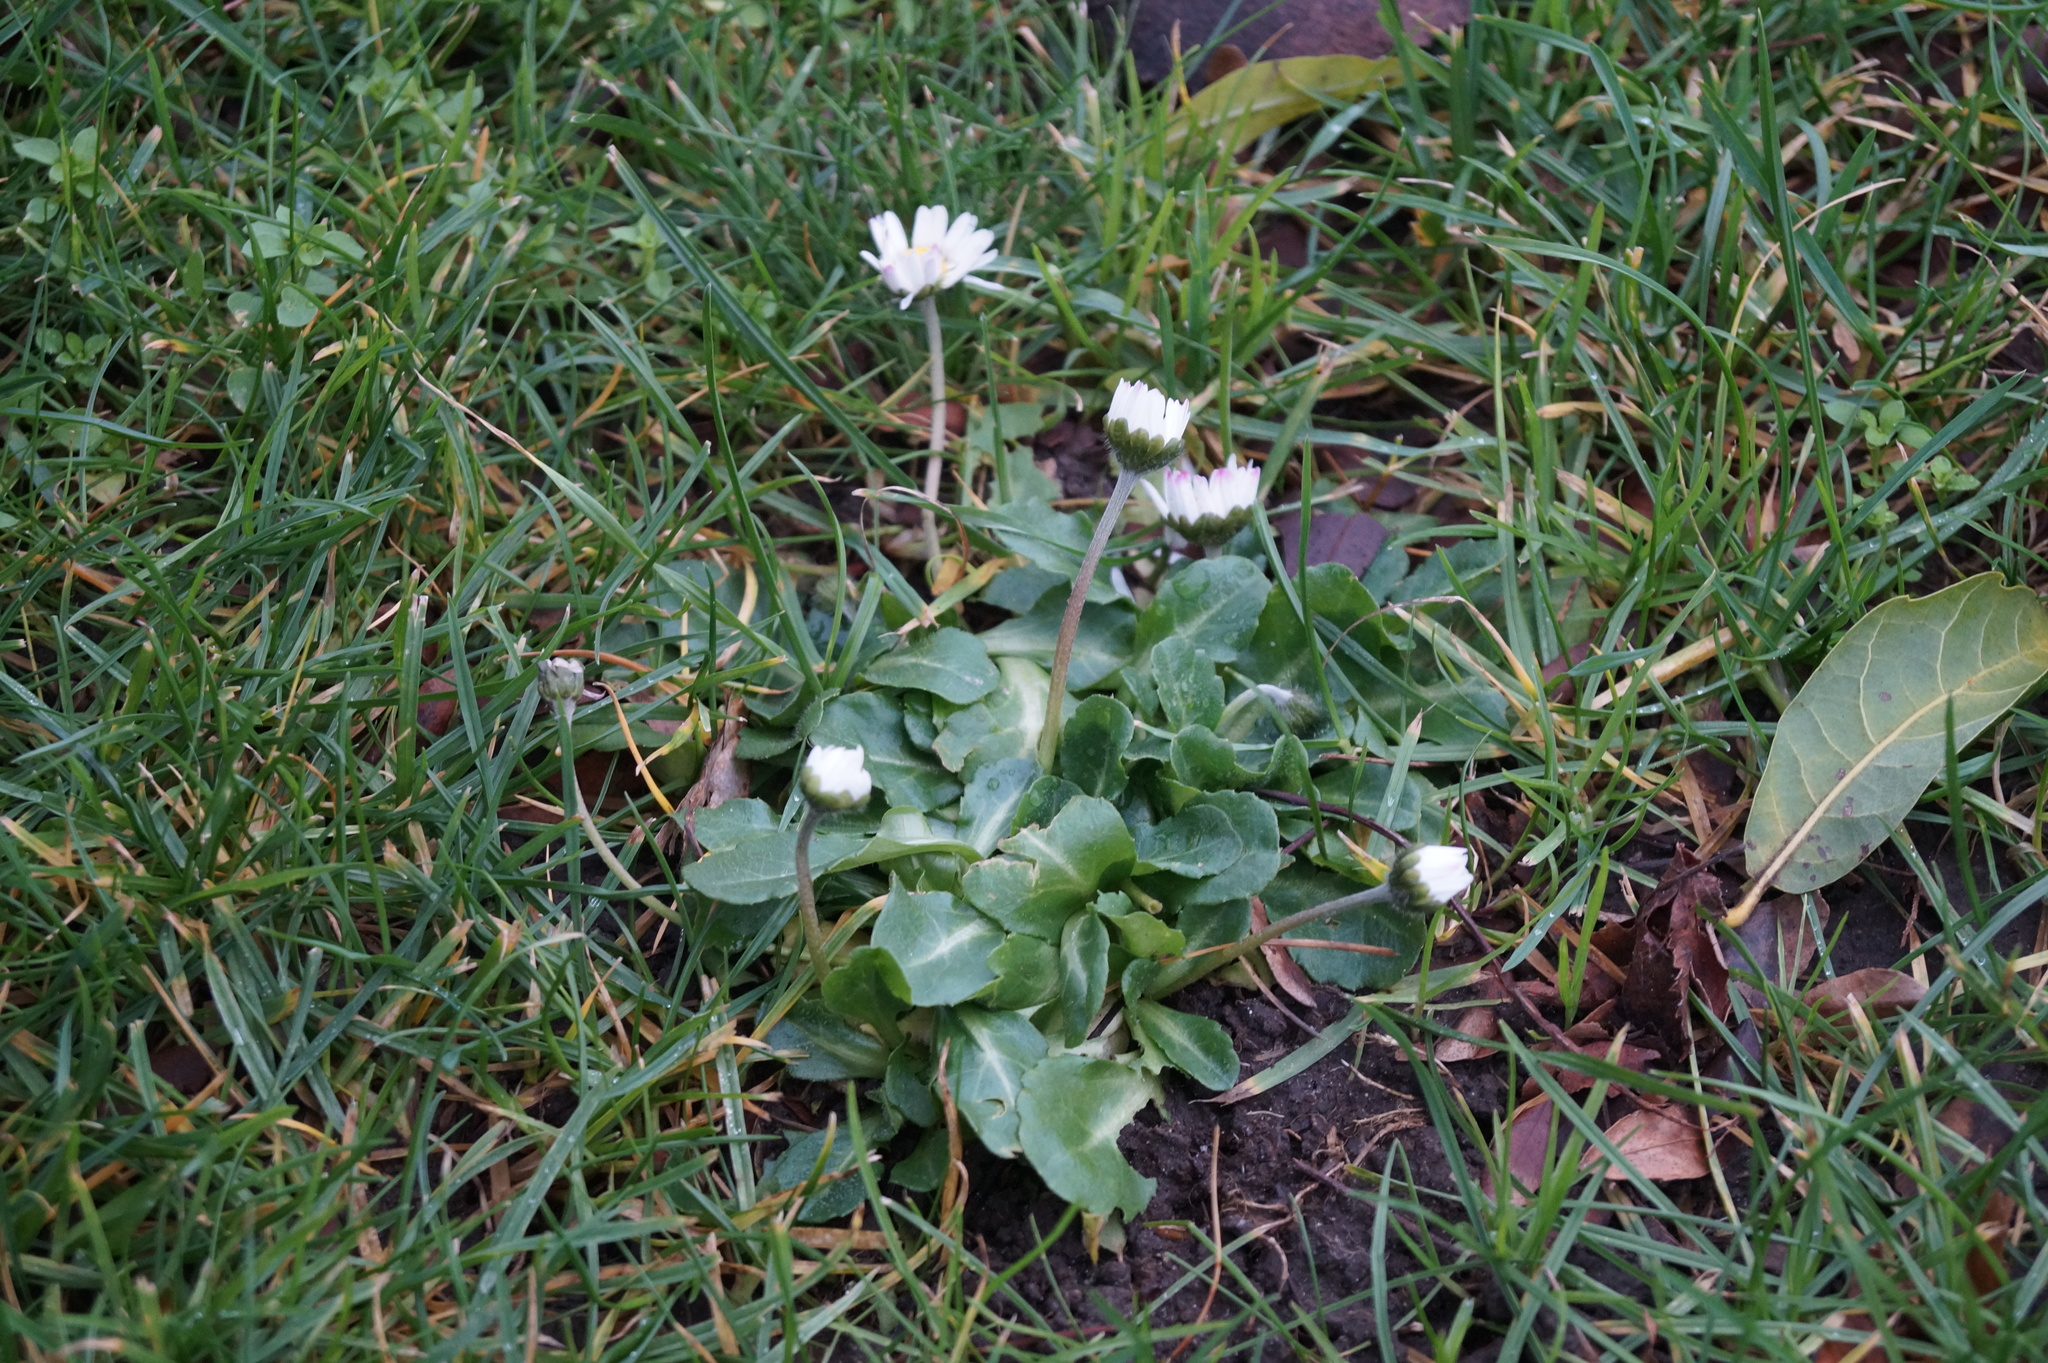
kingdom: Plantae
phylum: Tracheophyta
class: Magnoliopsida
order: Asterales
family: Asteraceae
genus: Bellis
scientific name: Bellis perennis
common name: Lawndaisy
